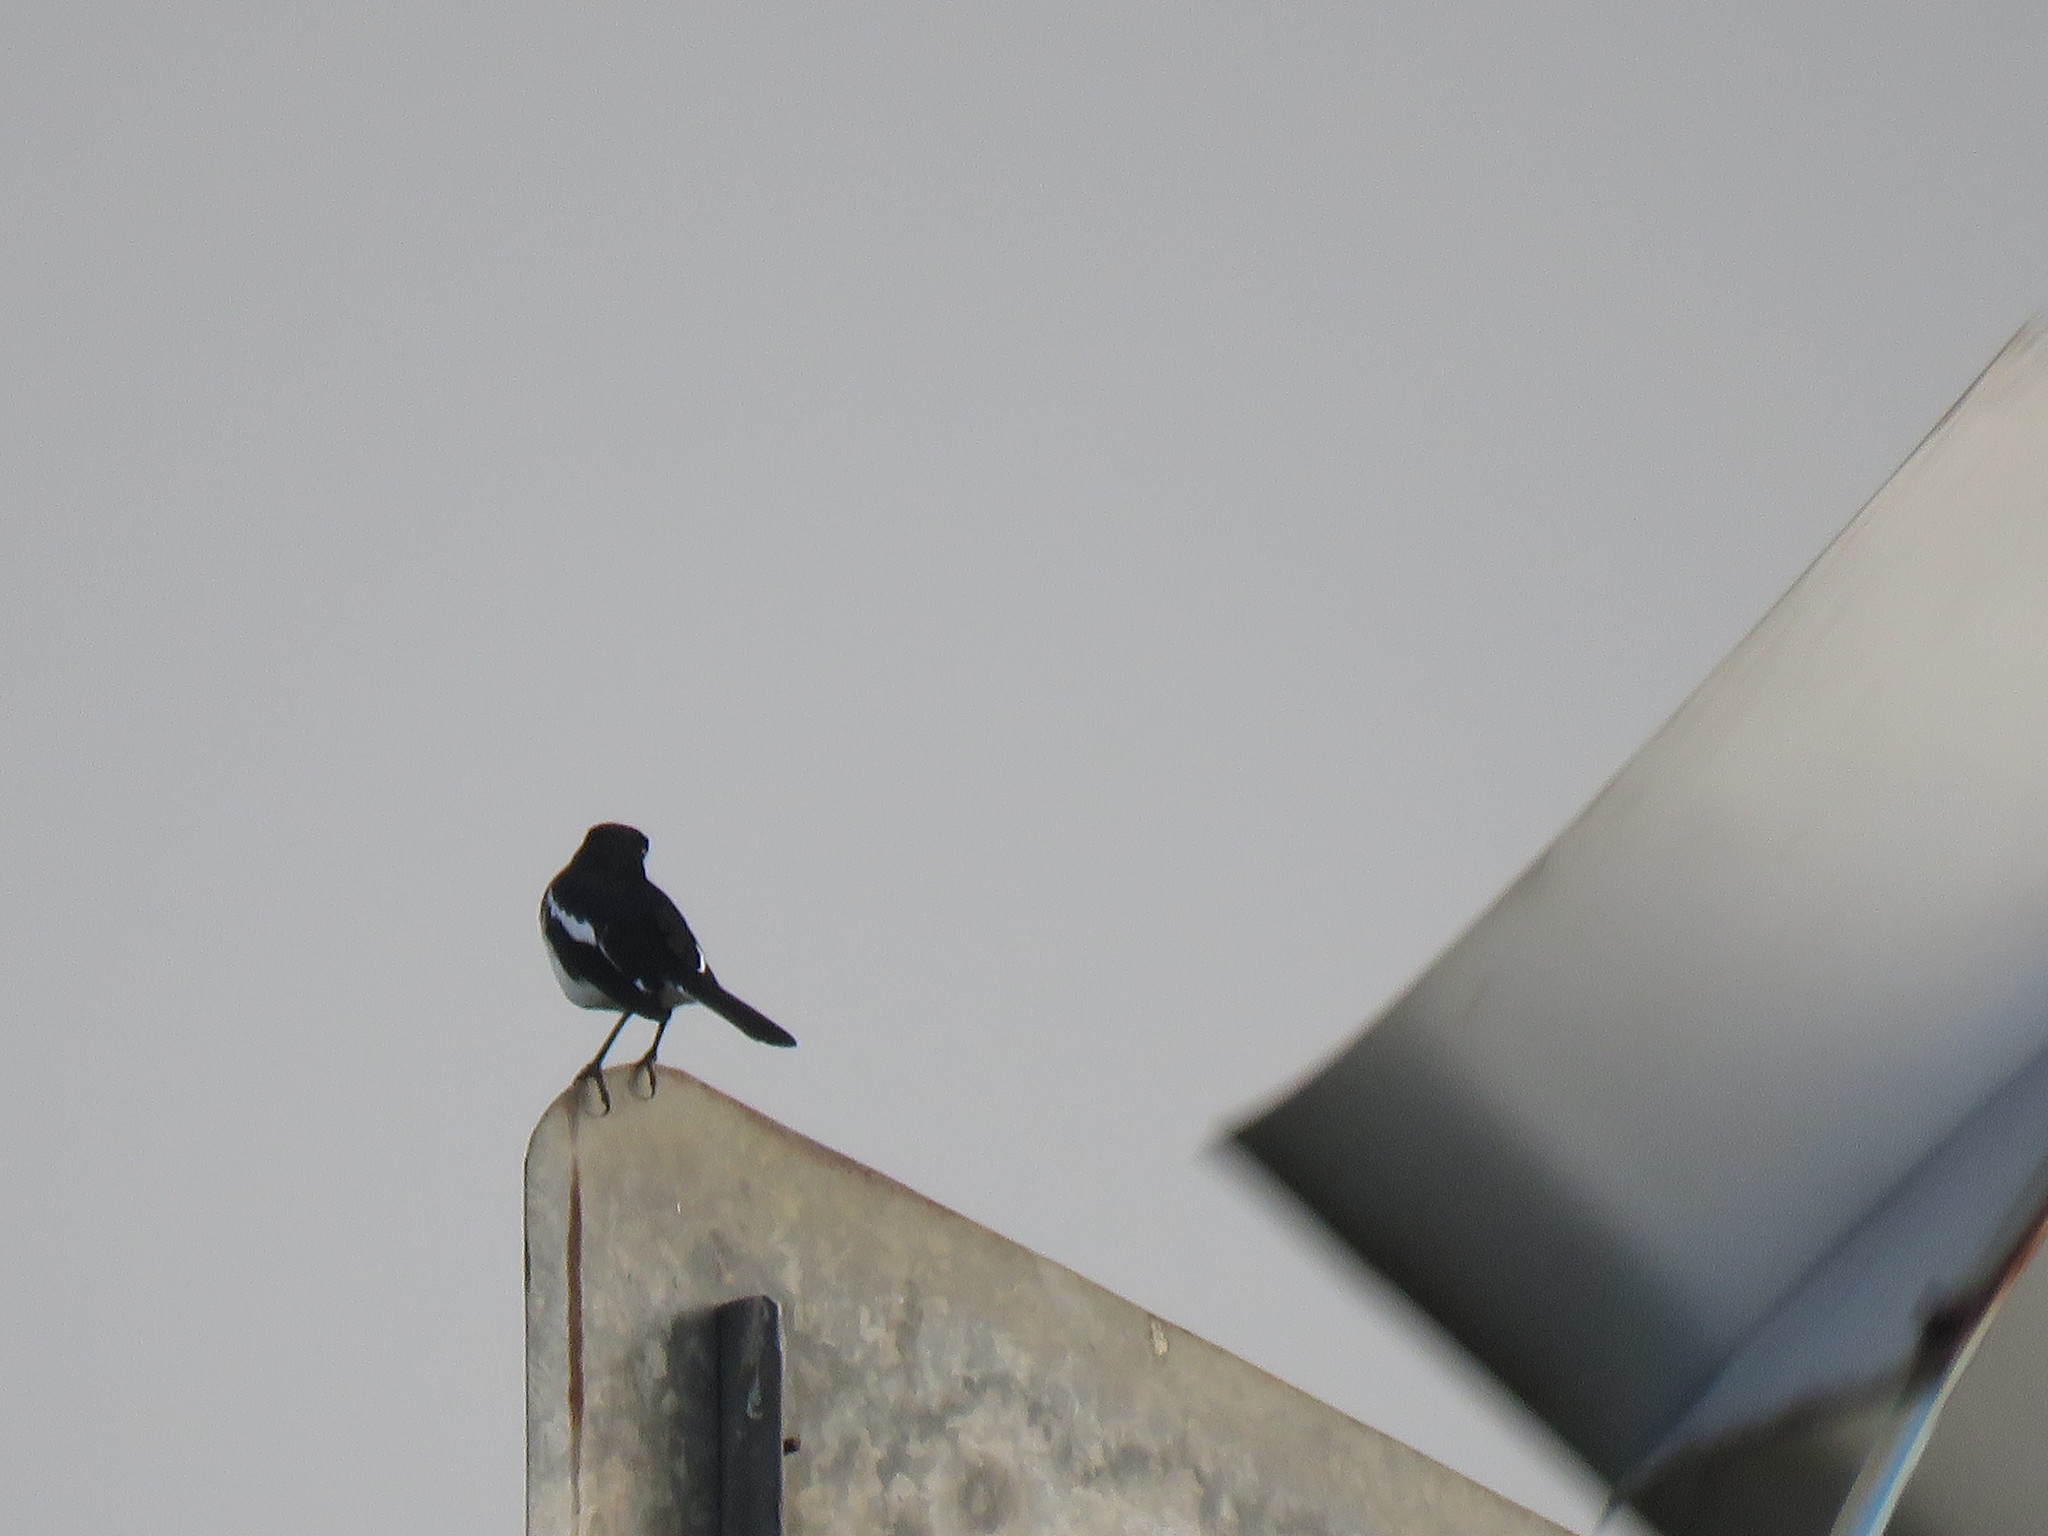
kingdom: Animalia
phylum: Chordata
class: Aves
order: Passeriformes
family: Muscicapidae
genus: Copsychus
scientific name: Copsychus saularis
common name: Oriental magpie-robin
